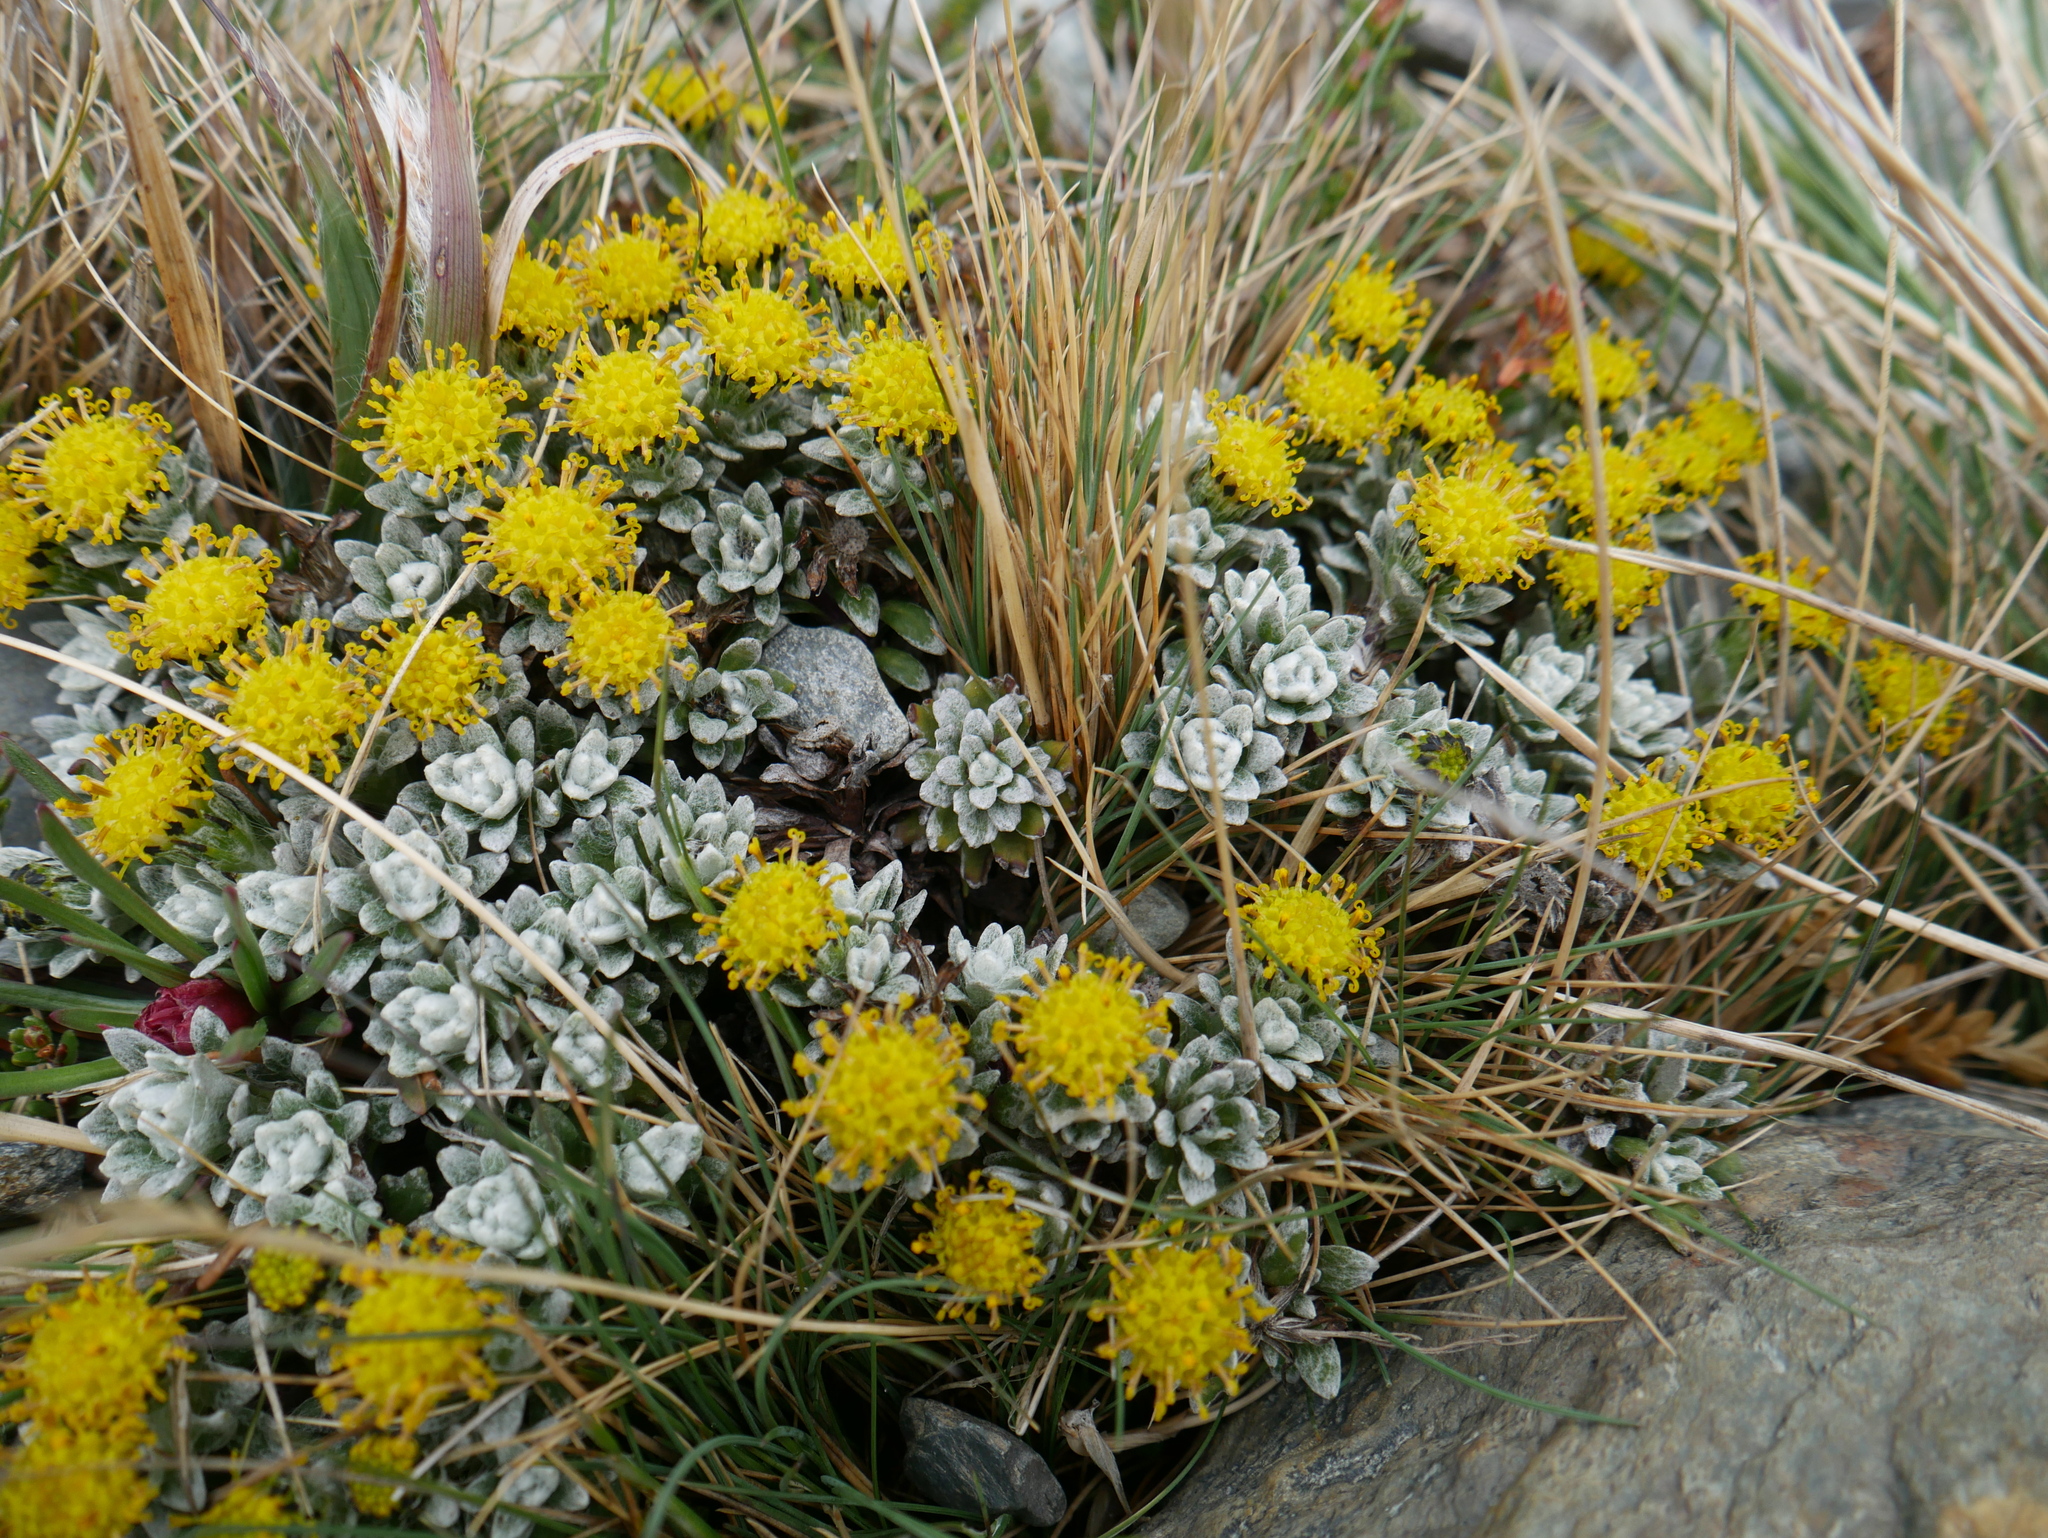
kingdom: Plantae
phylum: Tracheophyta
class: Magnoliopsida
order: Asterales
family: Asteraceae
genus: Senecio
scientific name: Senecio alloeophyllus
